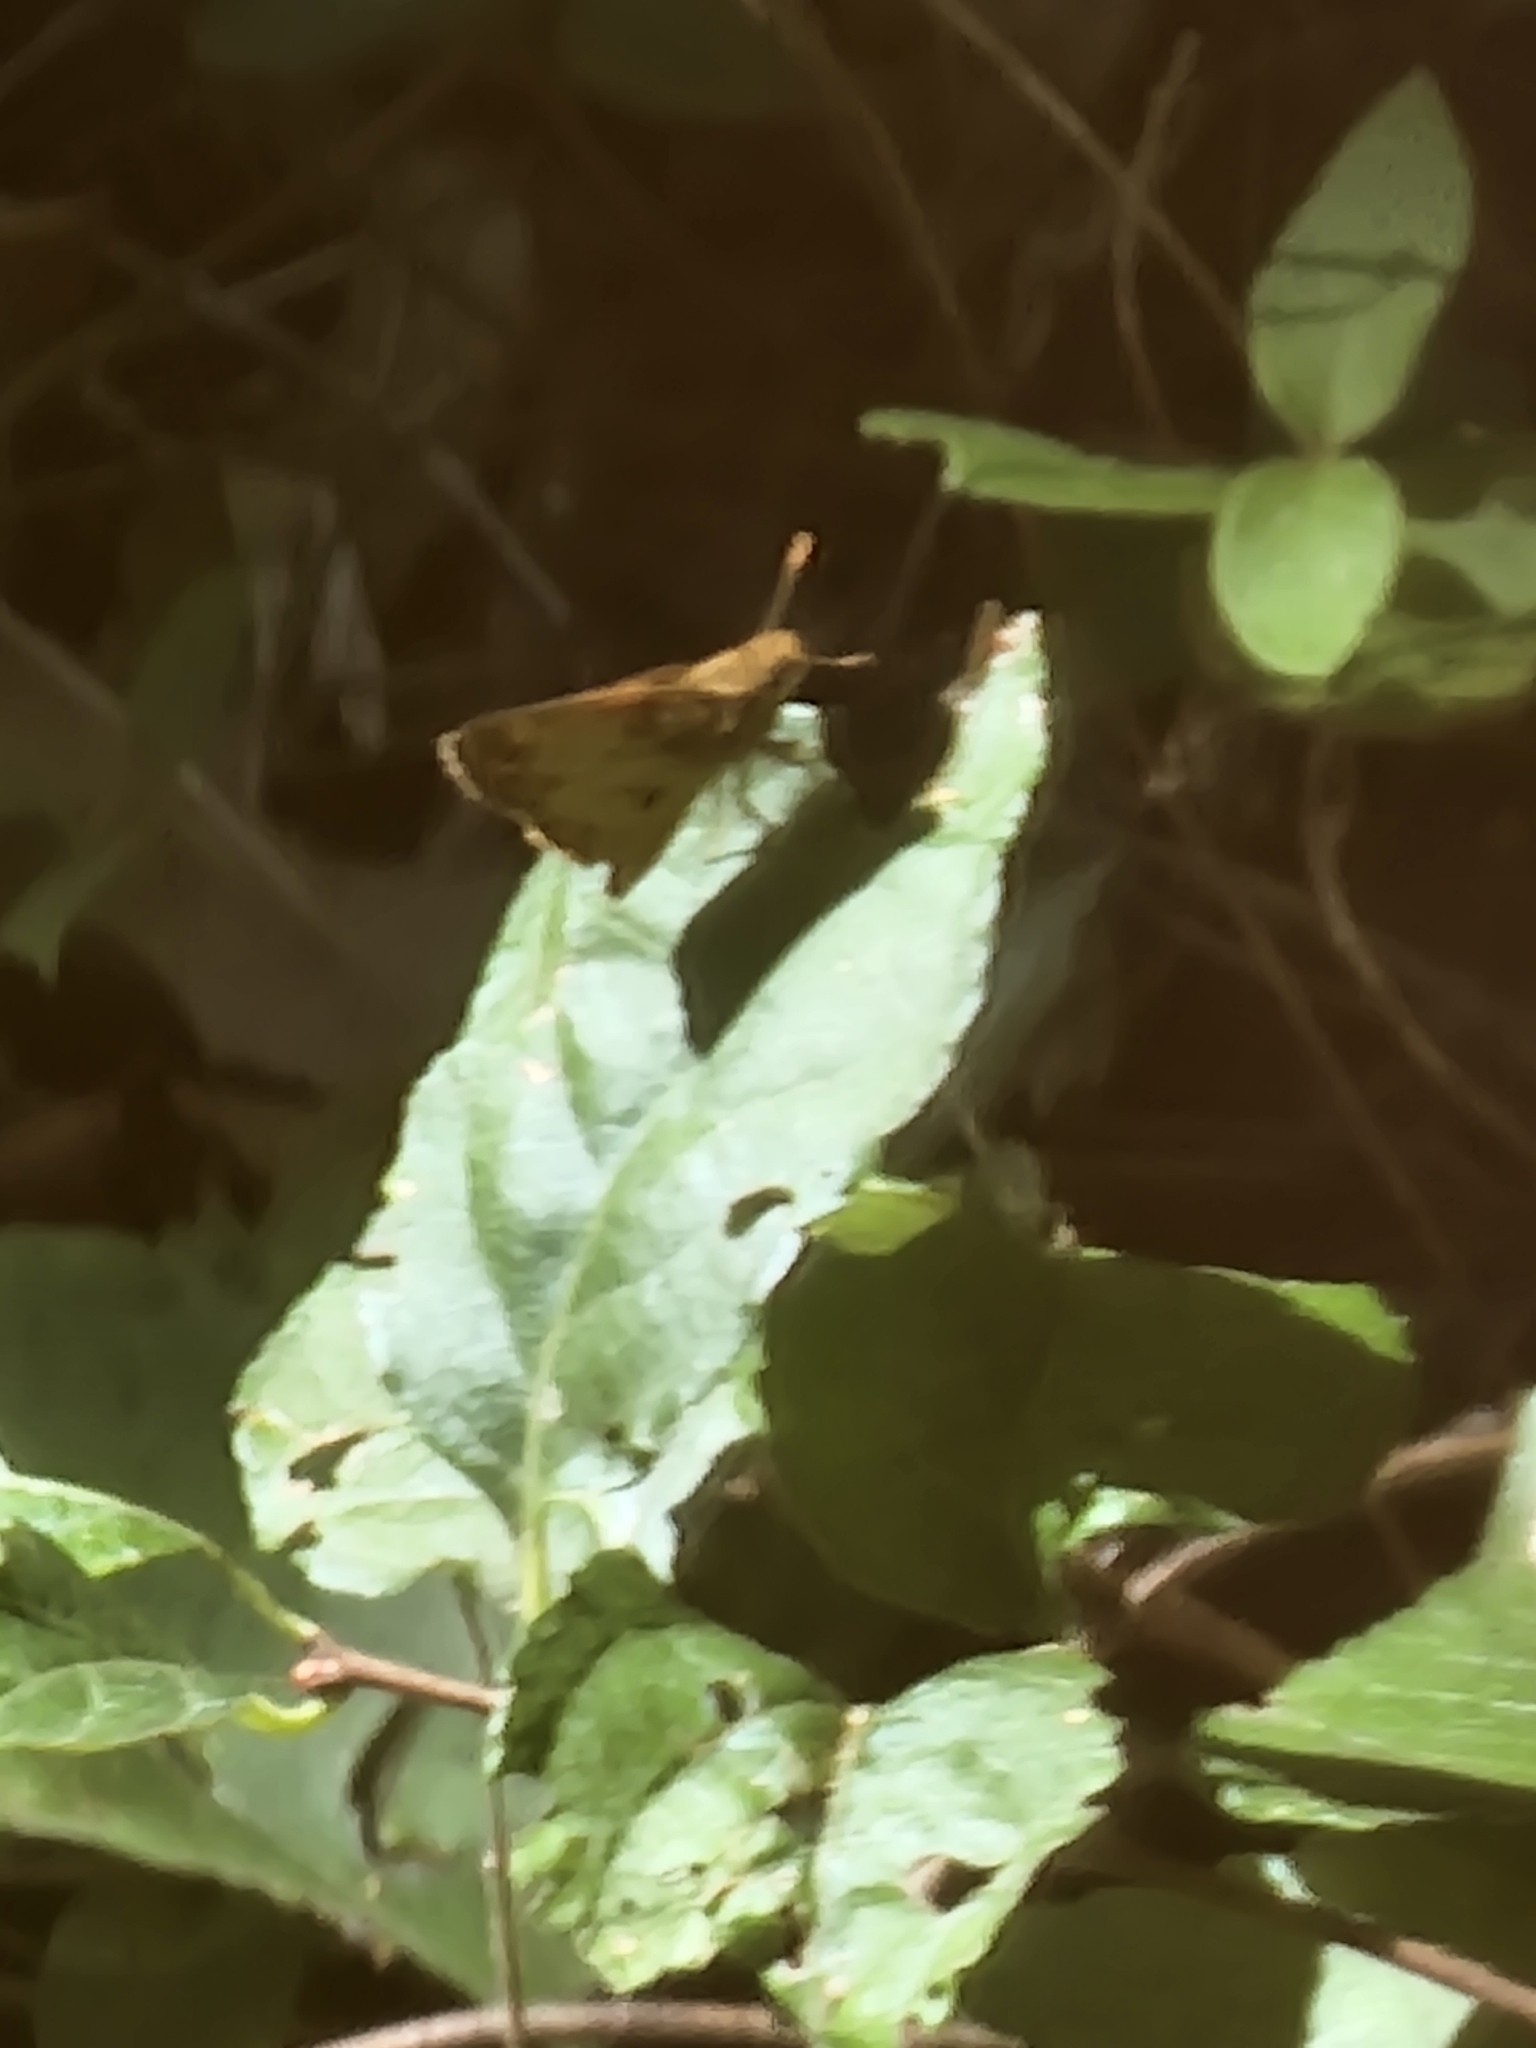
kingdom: Animalia
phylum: Arthropoda
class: Insecta
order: Lepidoptera
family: Hesperiidae
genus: Lon
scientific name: Lon zabulon
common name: Zabulon skipper
